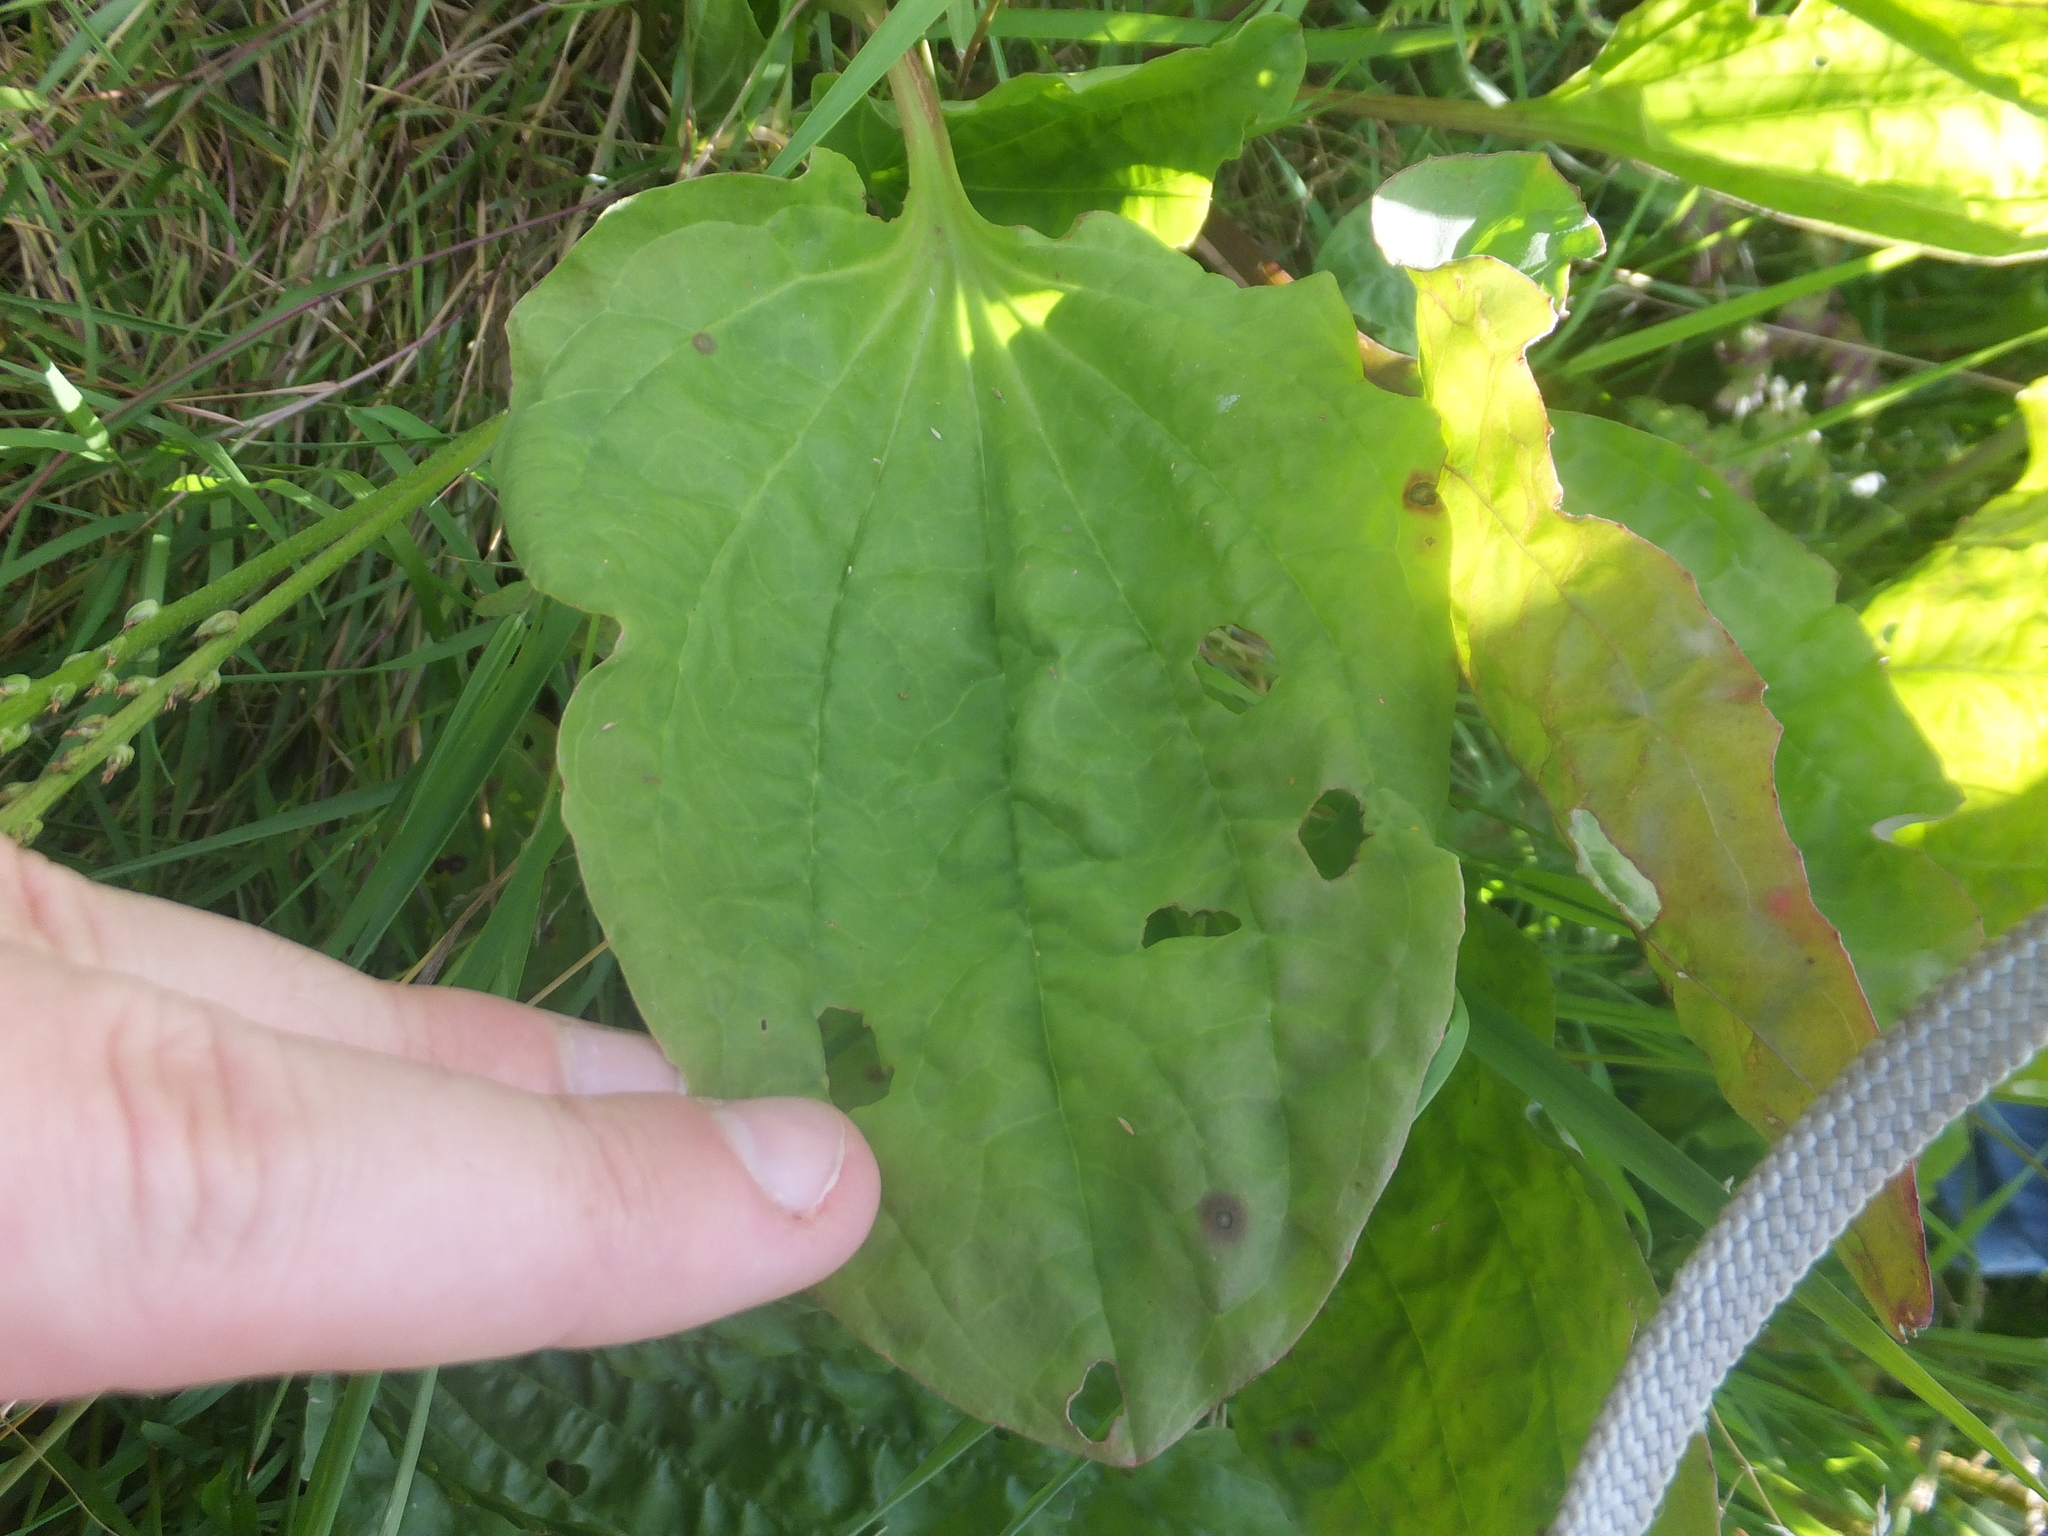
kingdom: Plantae
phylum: Tracheophyta
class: Magnoliopsida
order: Lamiales
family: Plantaginaceae
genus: Plantago
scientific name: Plantago major
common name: Common plantain
